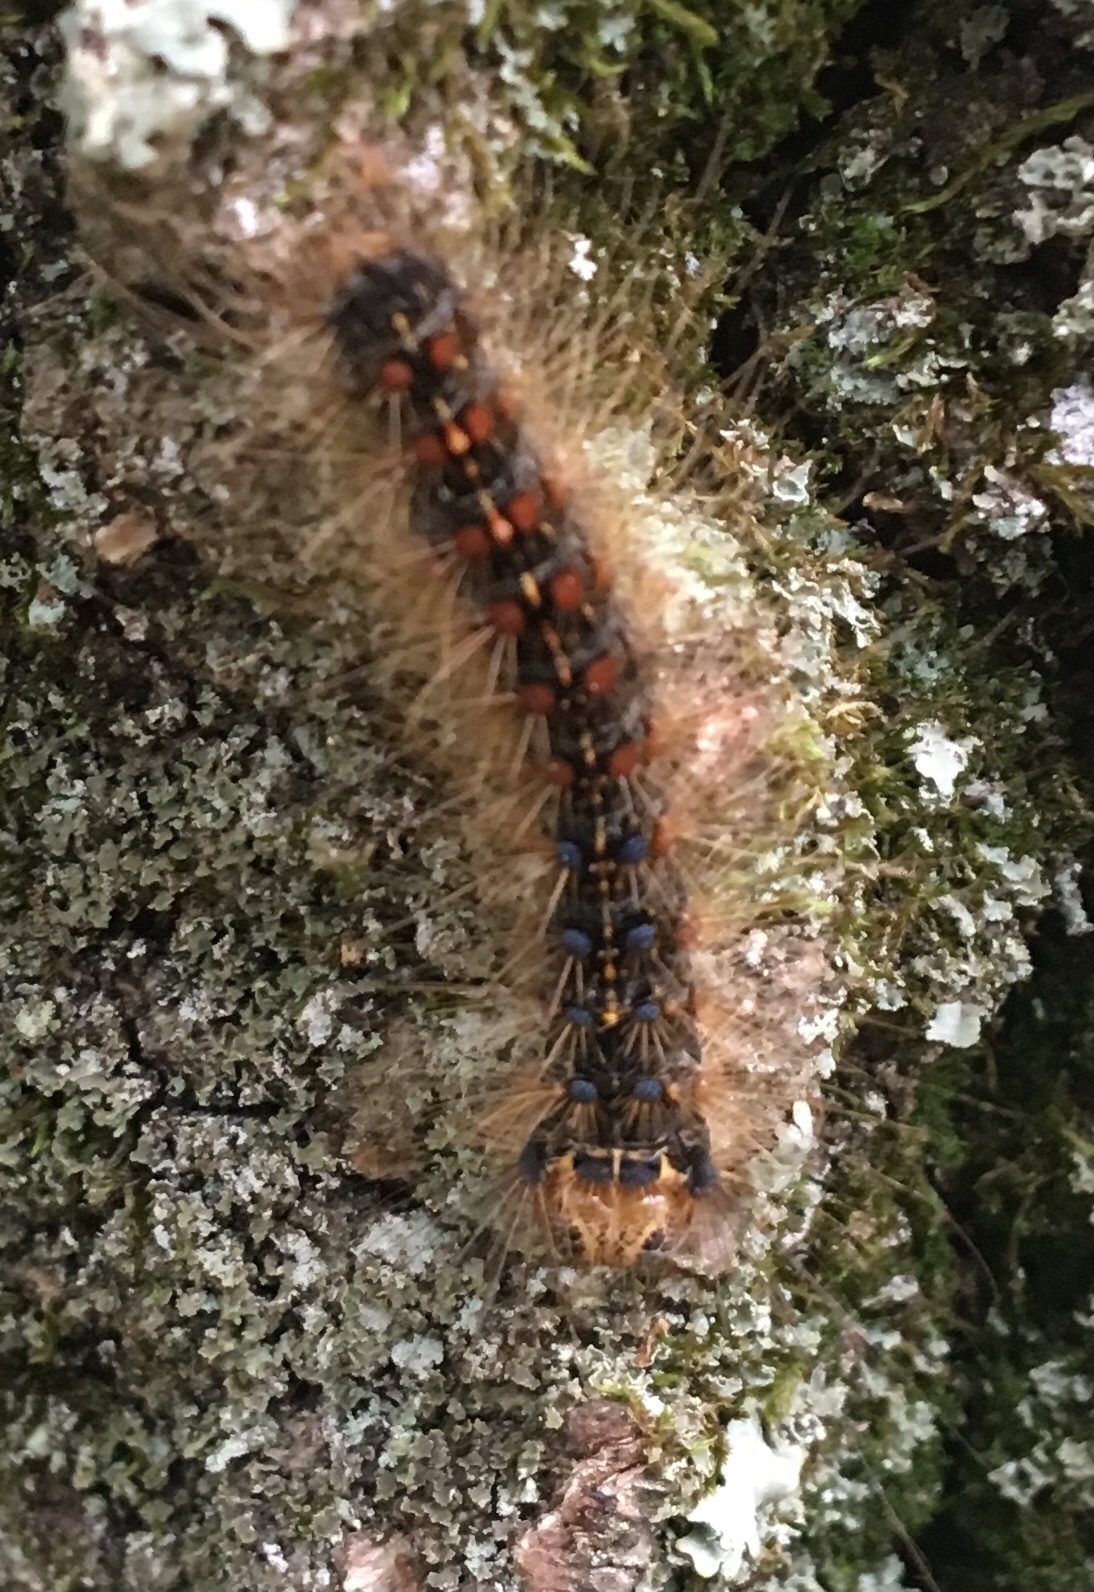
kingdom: Animalia
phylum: Arthropoda
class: Insecta
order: Lepidoptera
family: Erebidae
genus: Lymantria
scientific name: Lymantria dispar
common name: Gypsy moth
